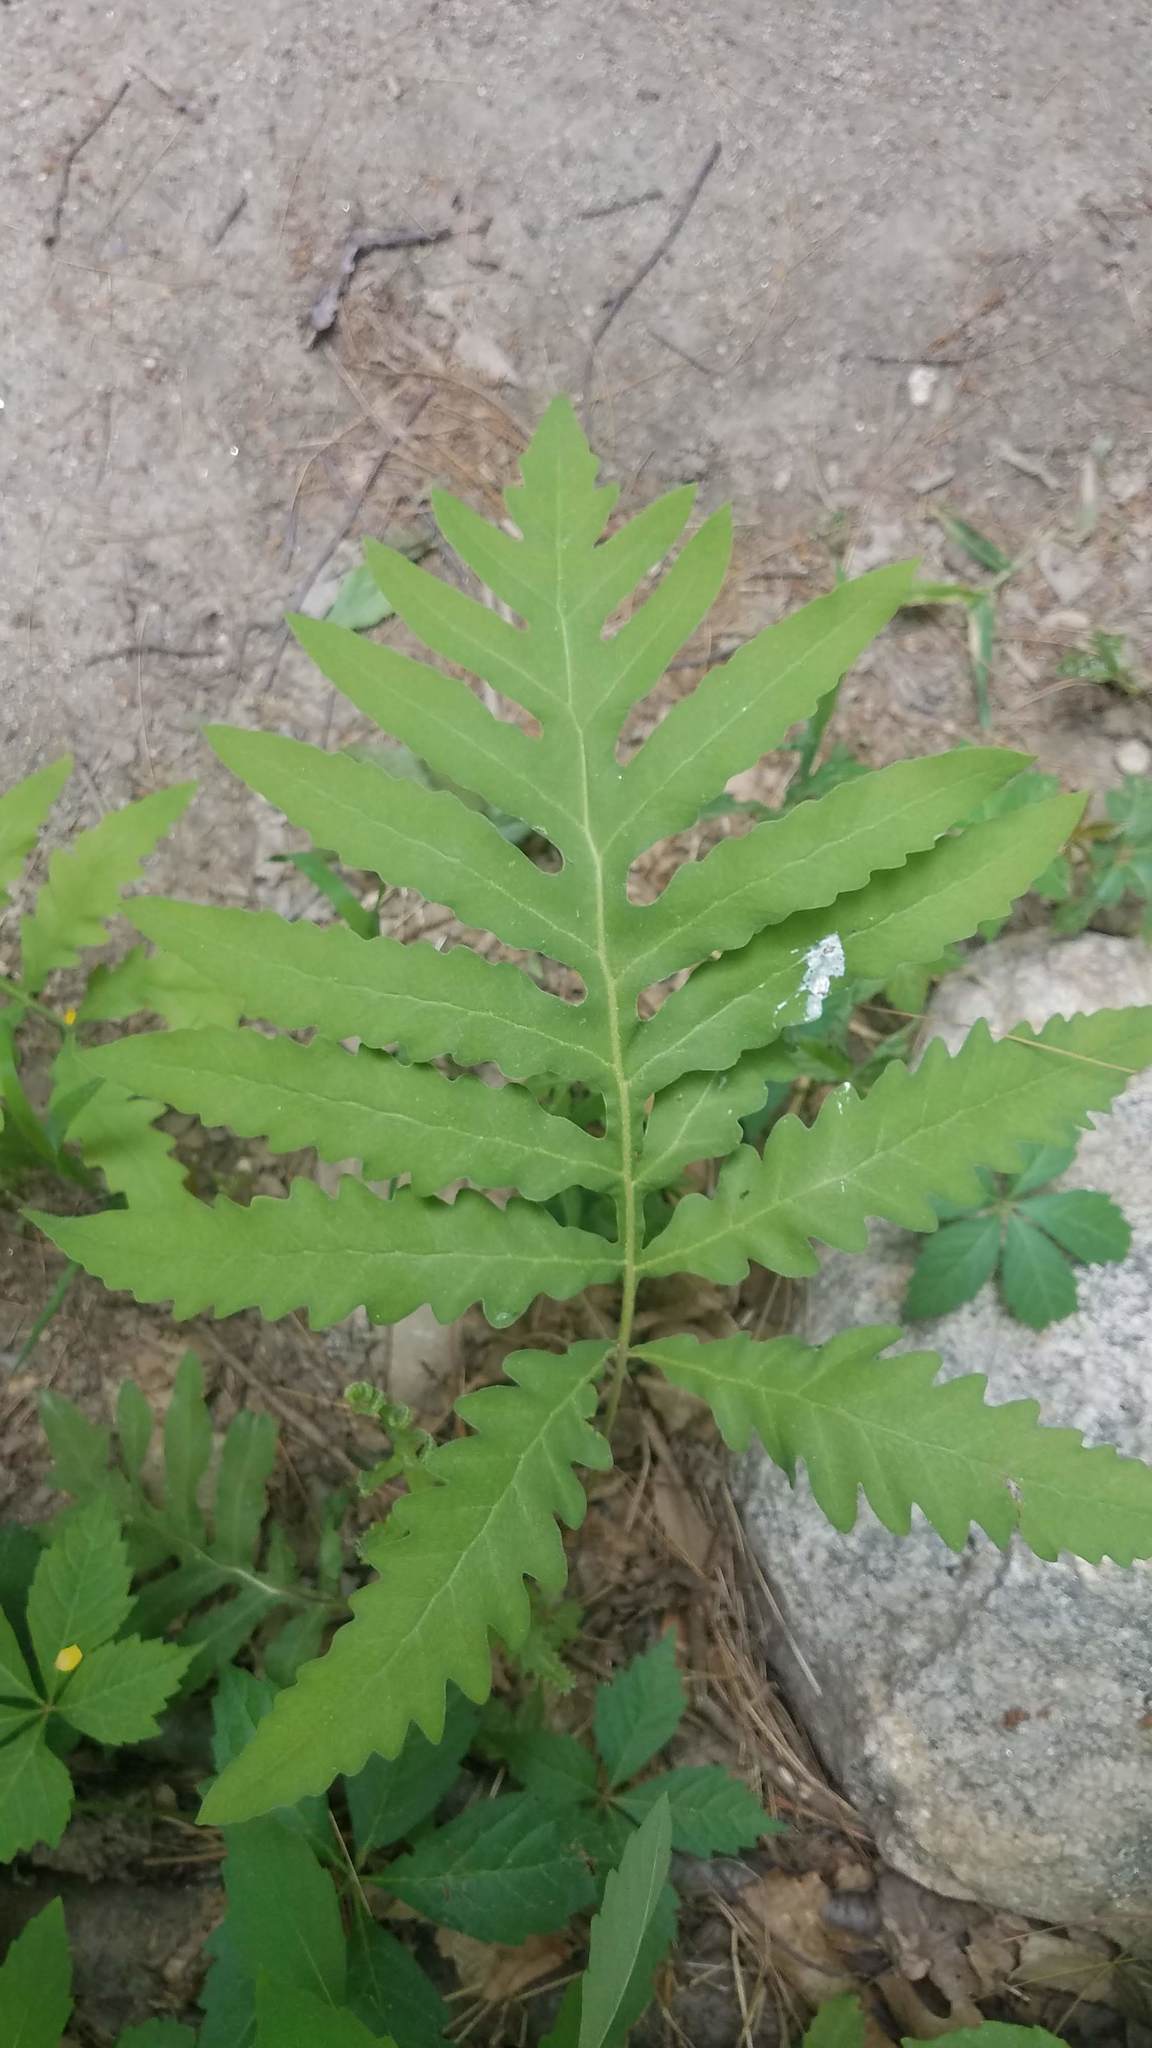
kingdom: Plantae
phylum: Tracheophyta
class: Polypodiopsida
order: Polypodiales
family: Onocleaceae
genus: Onoclea
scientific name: Onoclea sensibilis
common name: Sensitive fern
